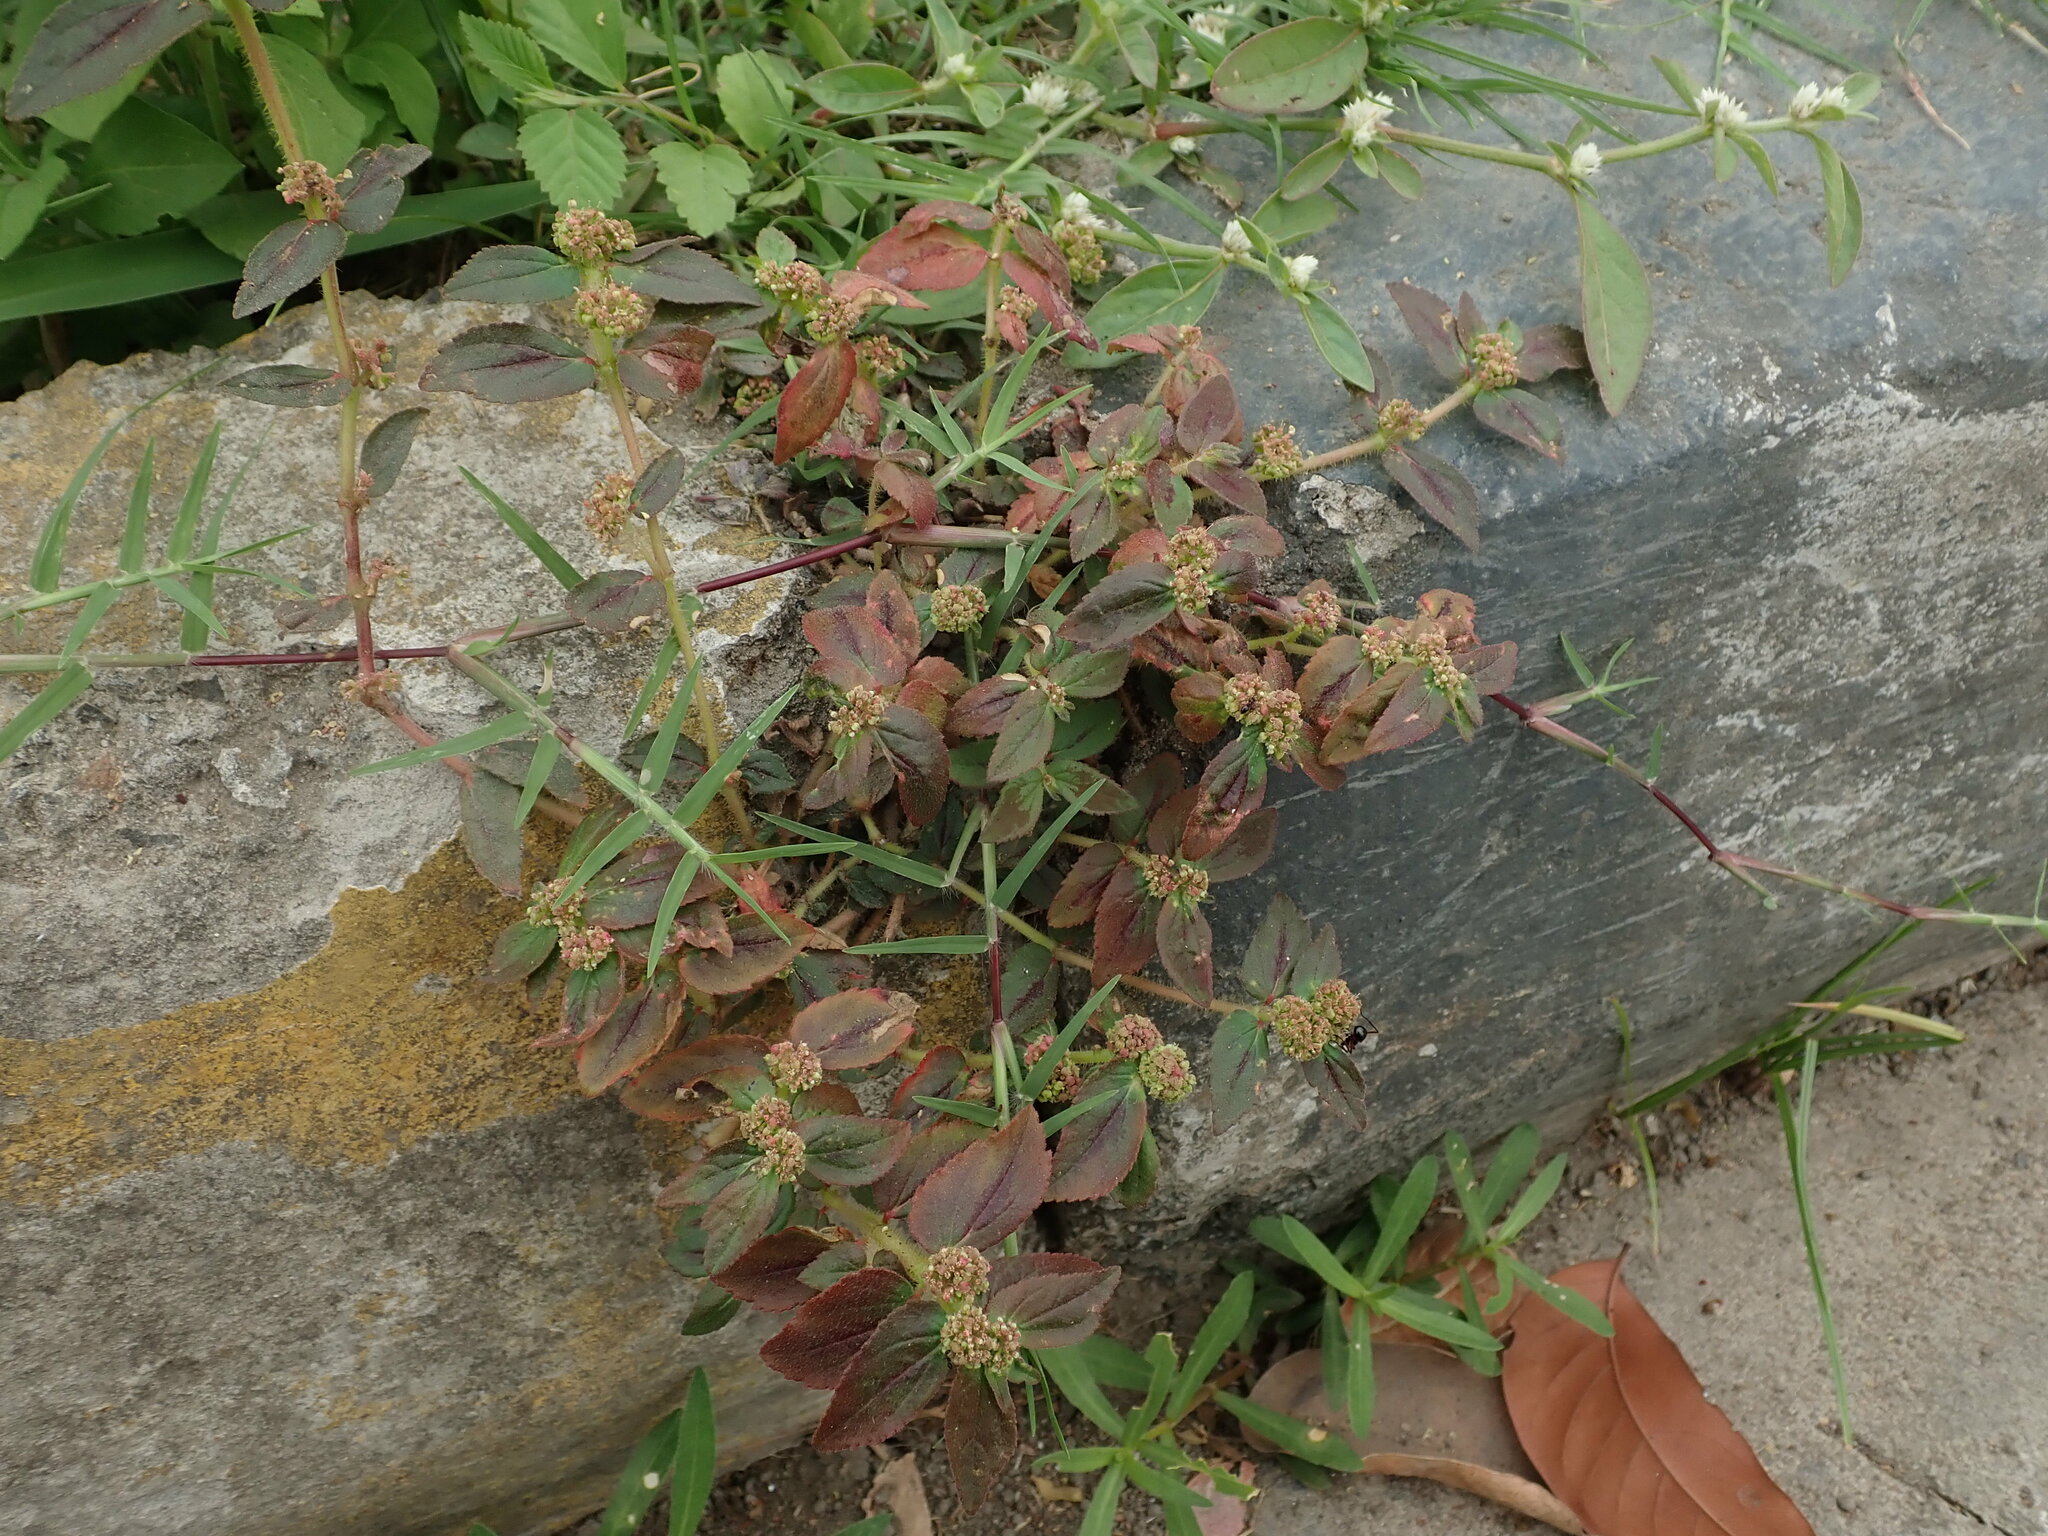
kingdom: Plantae
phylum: Tracheophyta
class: Magnoliopsida
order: Malpighiales
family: Euphorbiaceae
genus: Euphorbia
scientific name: Euphorbia hirta
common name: Pillpod sandmat
